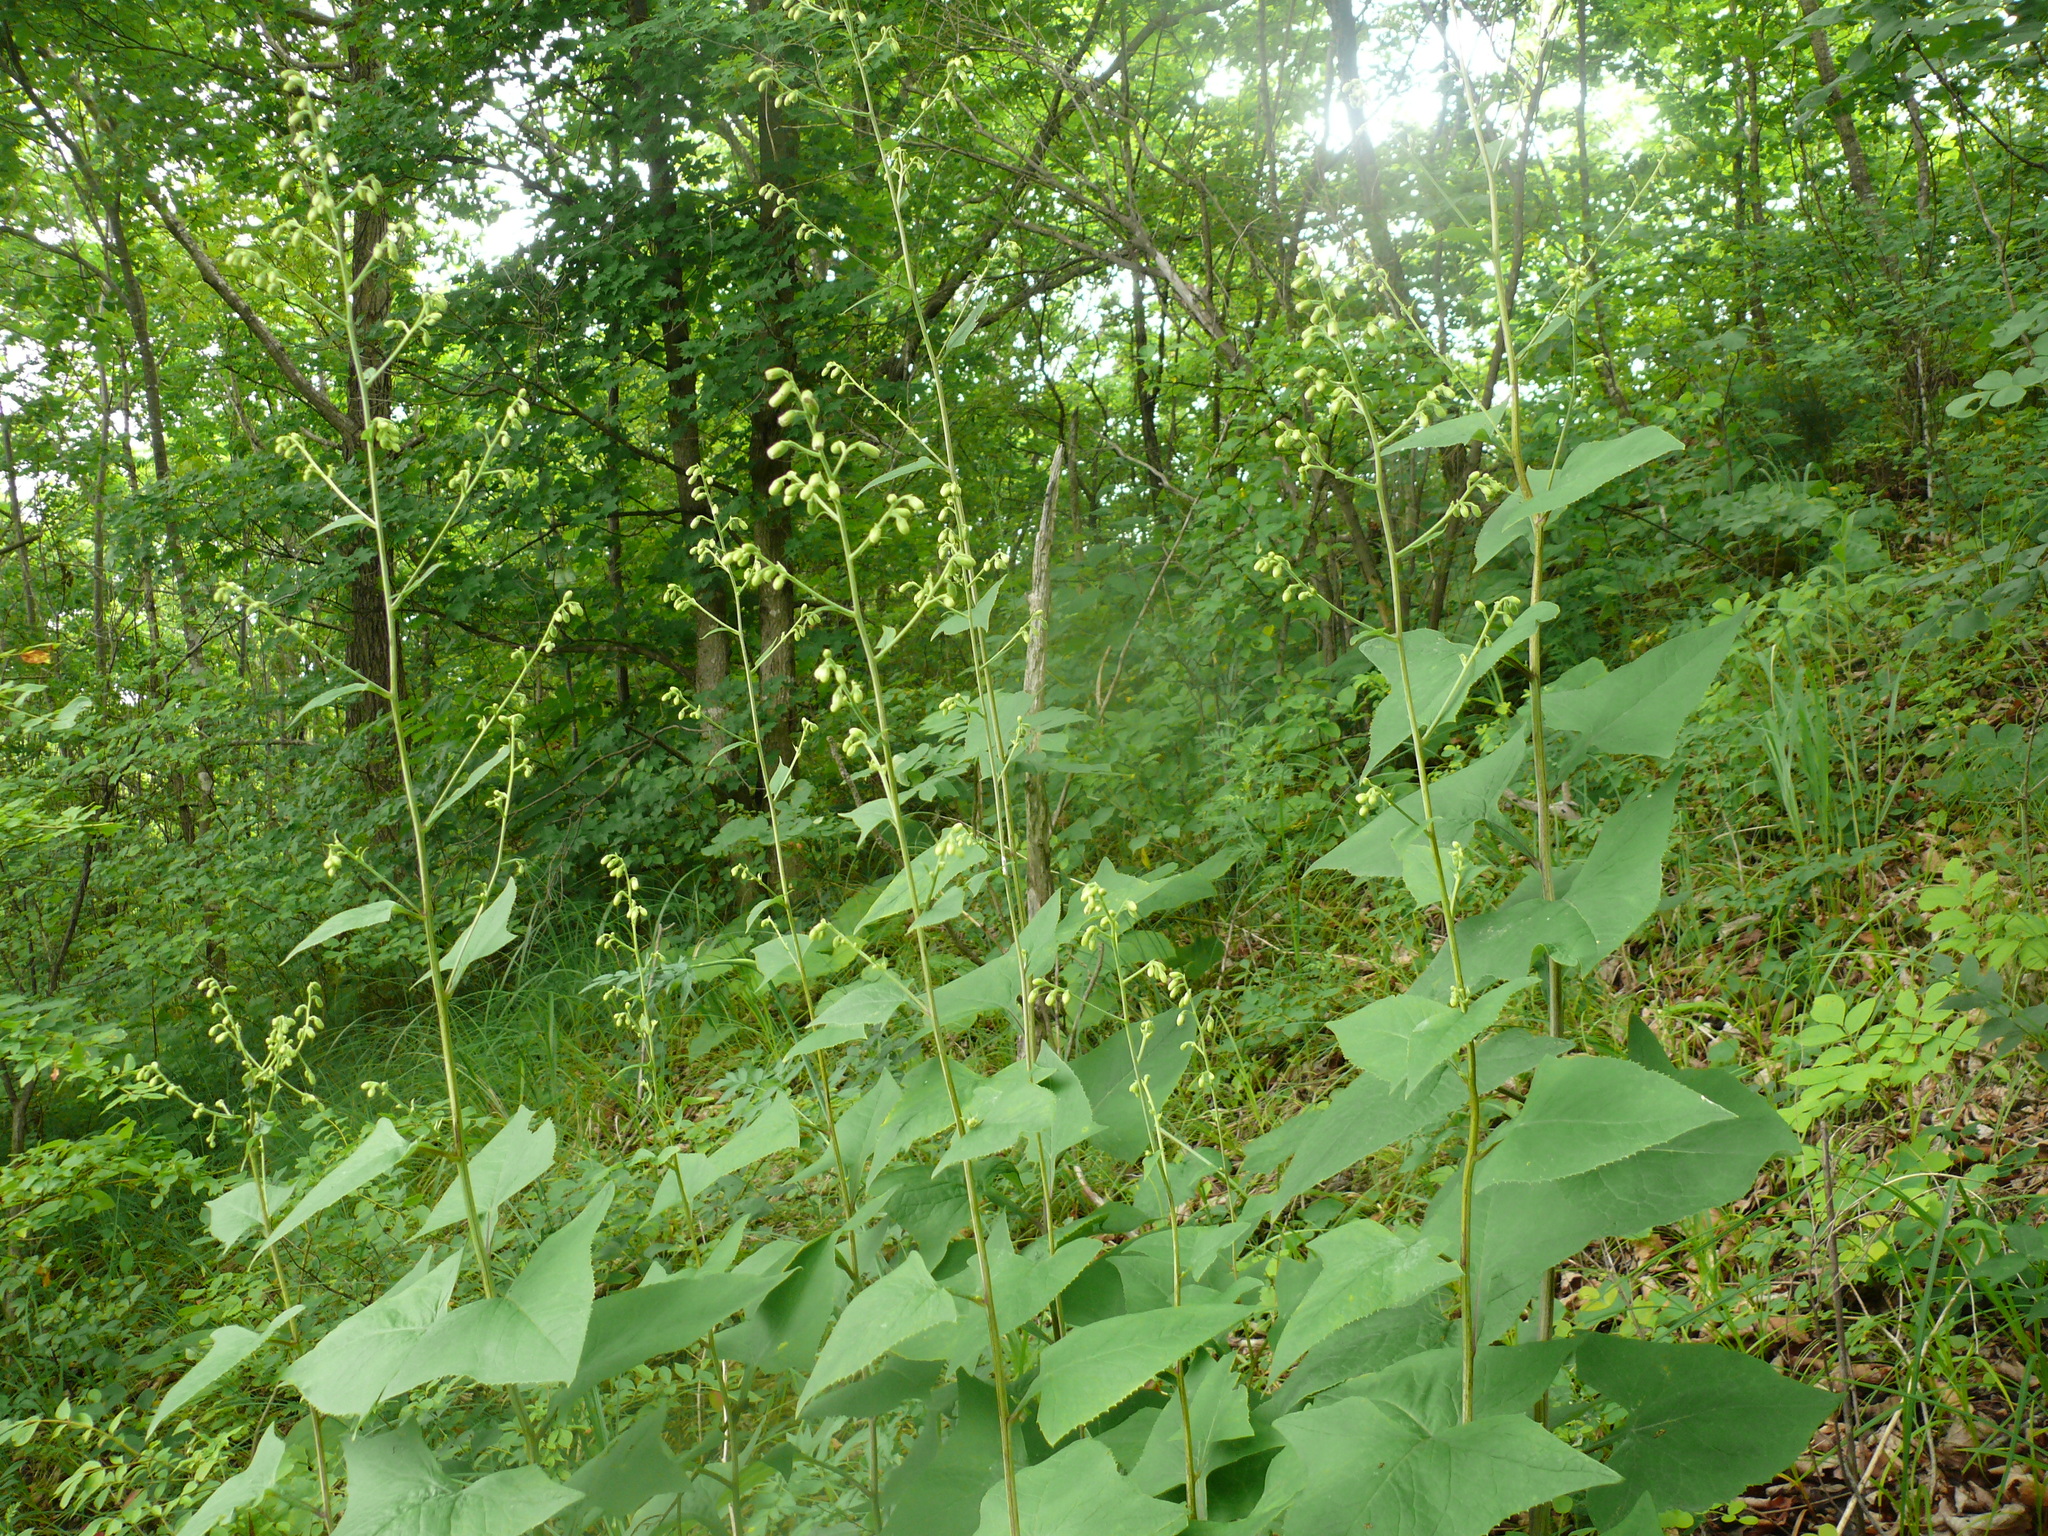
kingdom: Plantae
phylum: Tracheophyta
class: Magnoliopsida
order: Asterales
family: Asteraceae
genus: Parasenecio
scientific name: Parasenecio hastatus
